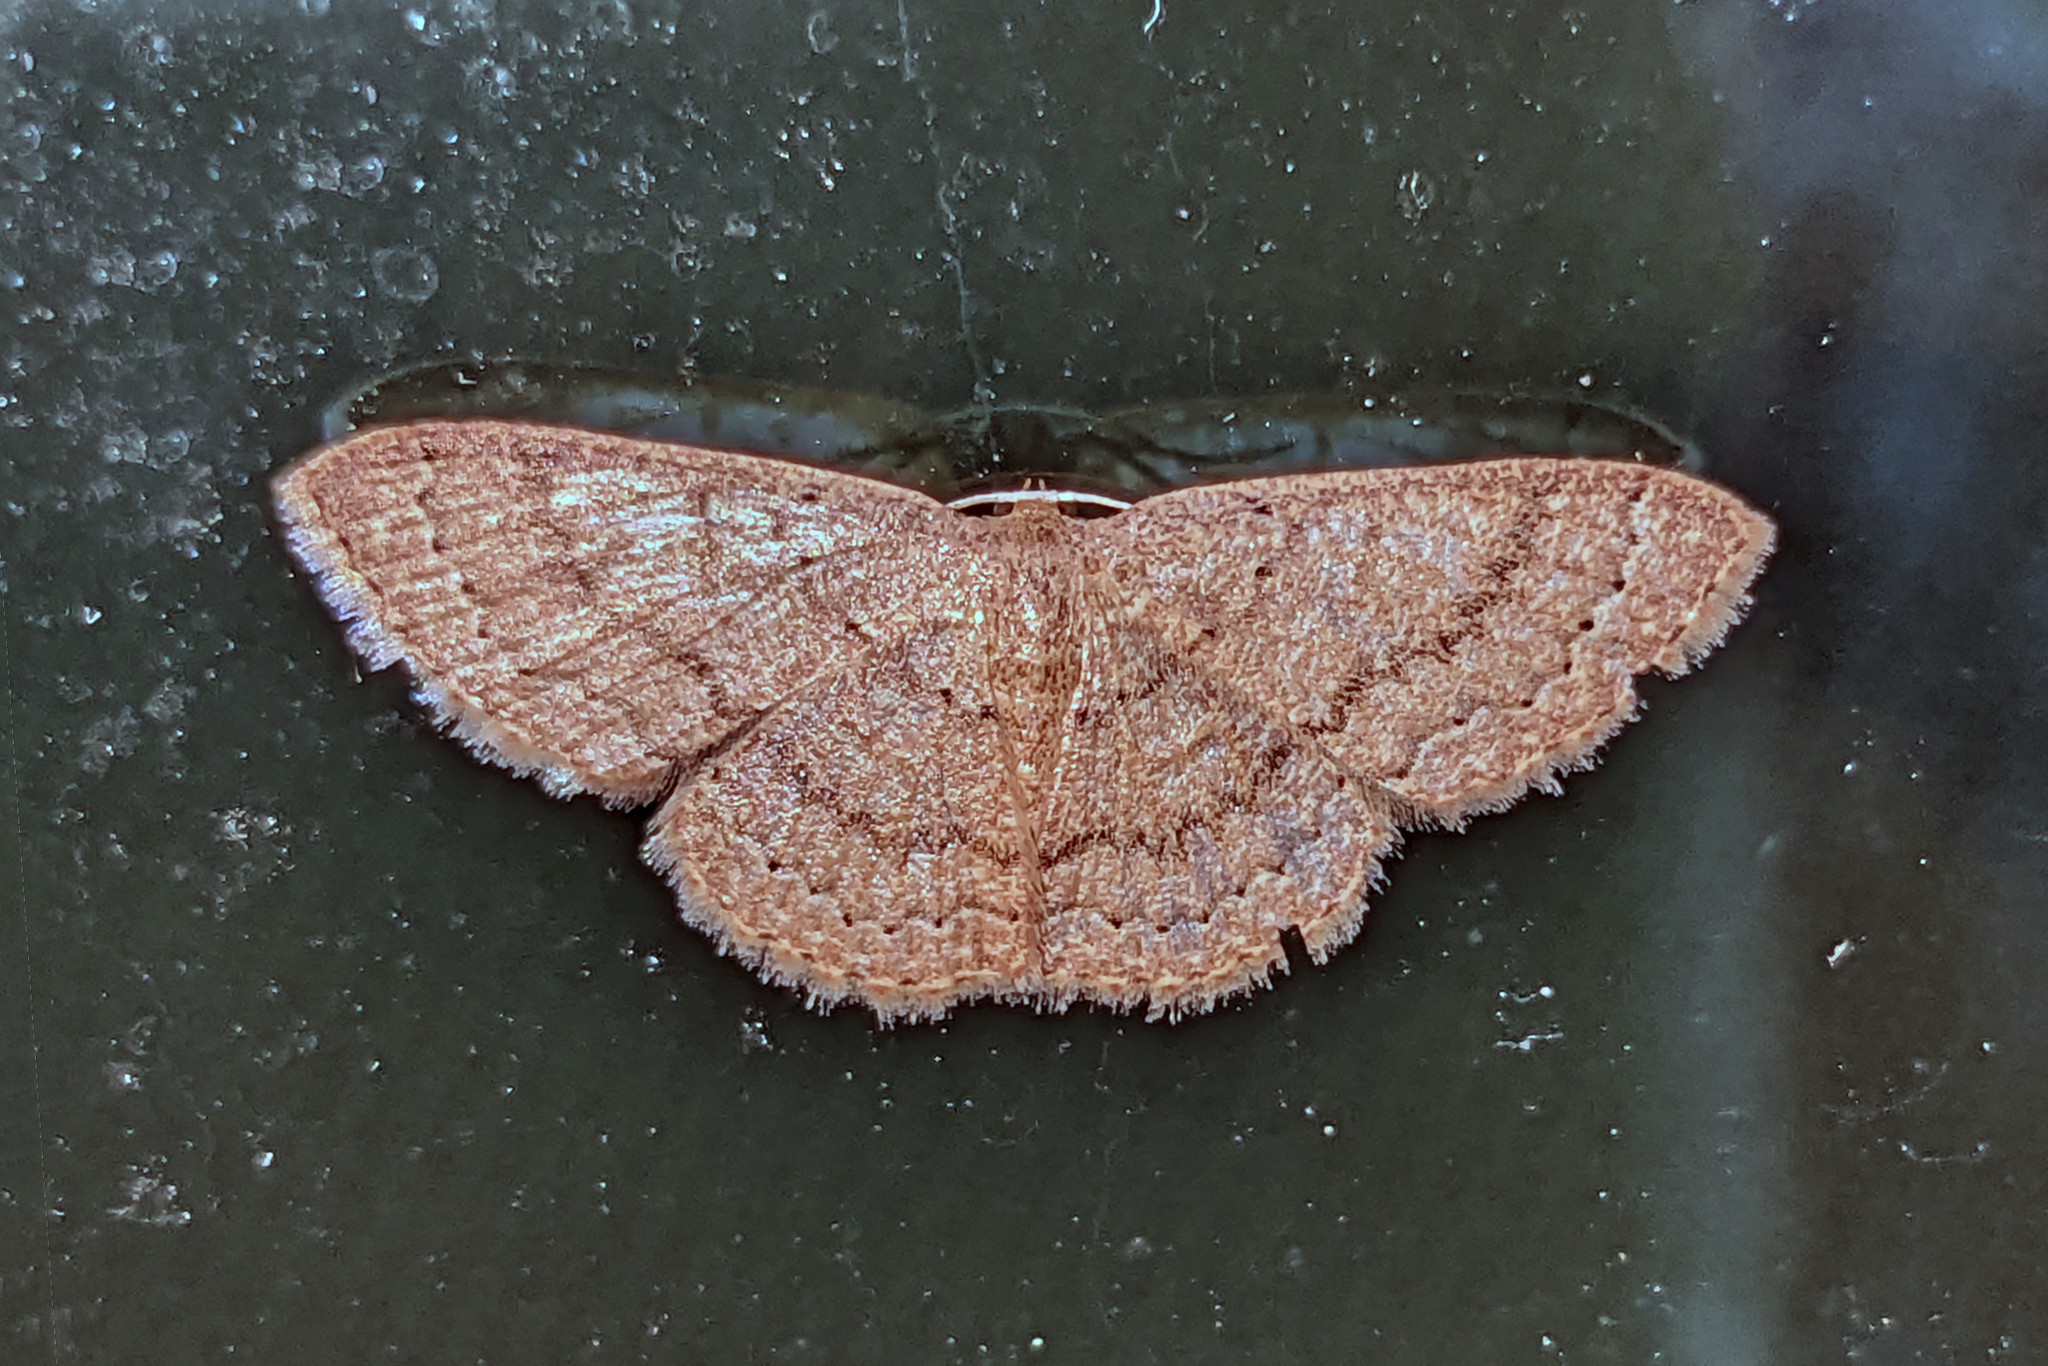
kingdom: Animalia
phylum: Arthropoda
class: Insecta
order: Lepidoptera
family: Geometridae
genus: Pleuroprucha
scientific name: Pleuroprucha insulsaria
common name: Common tan wave
